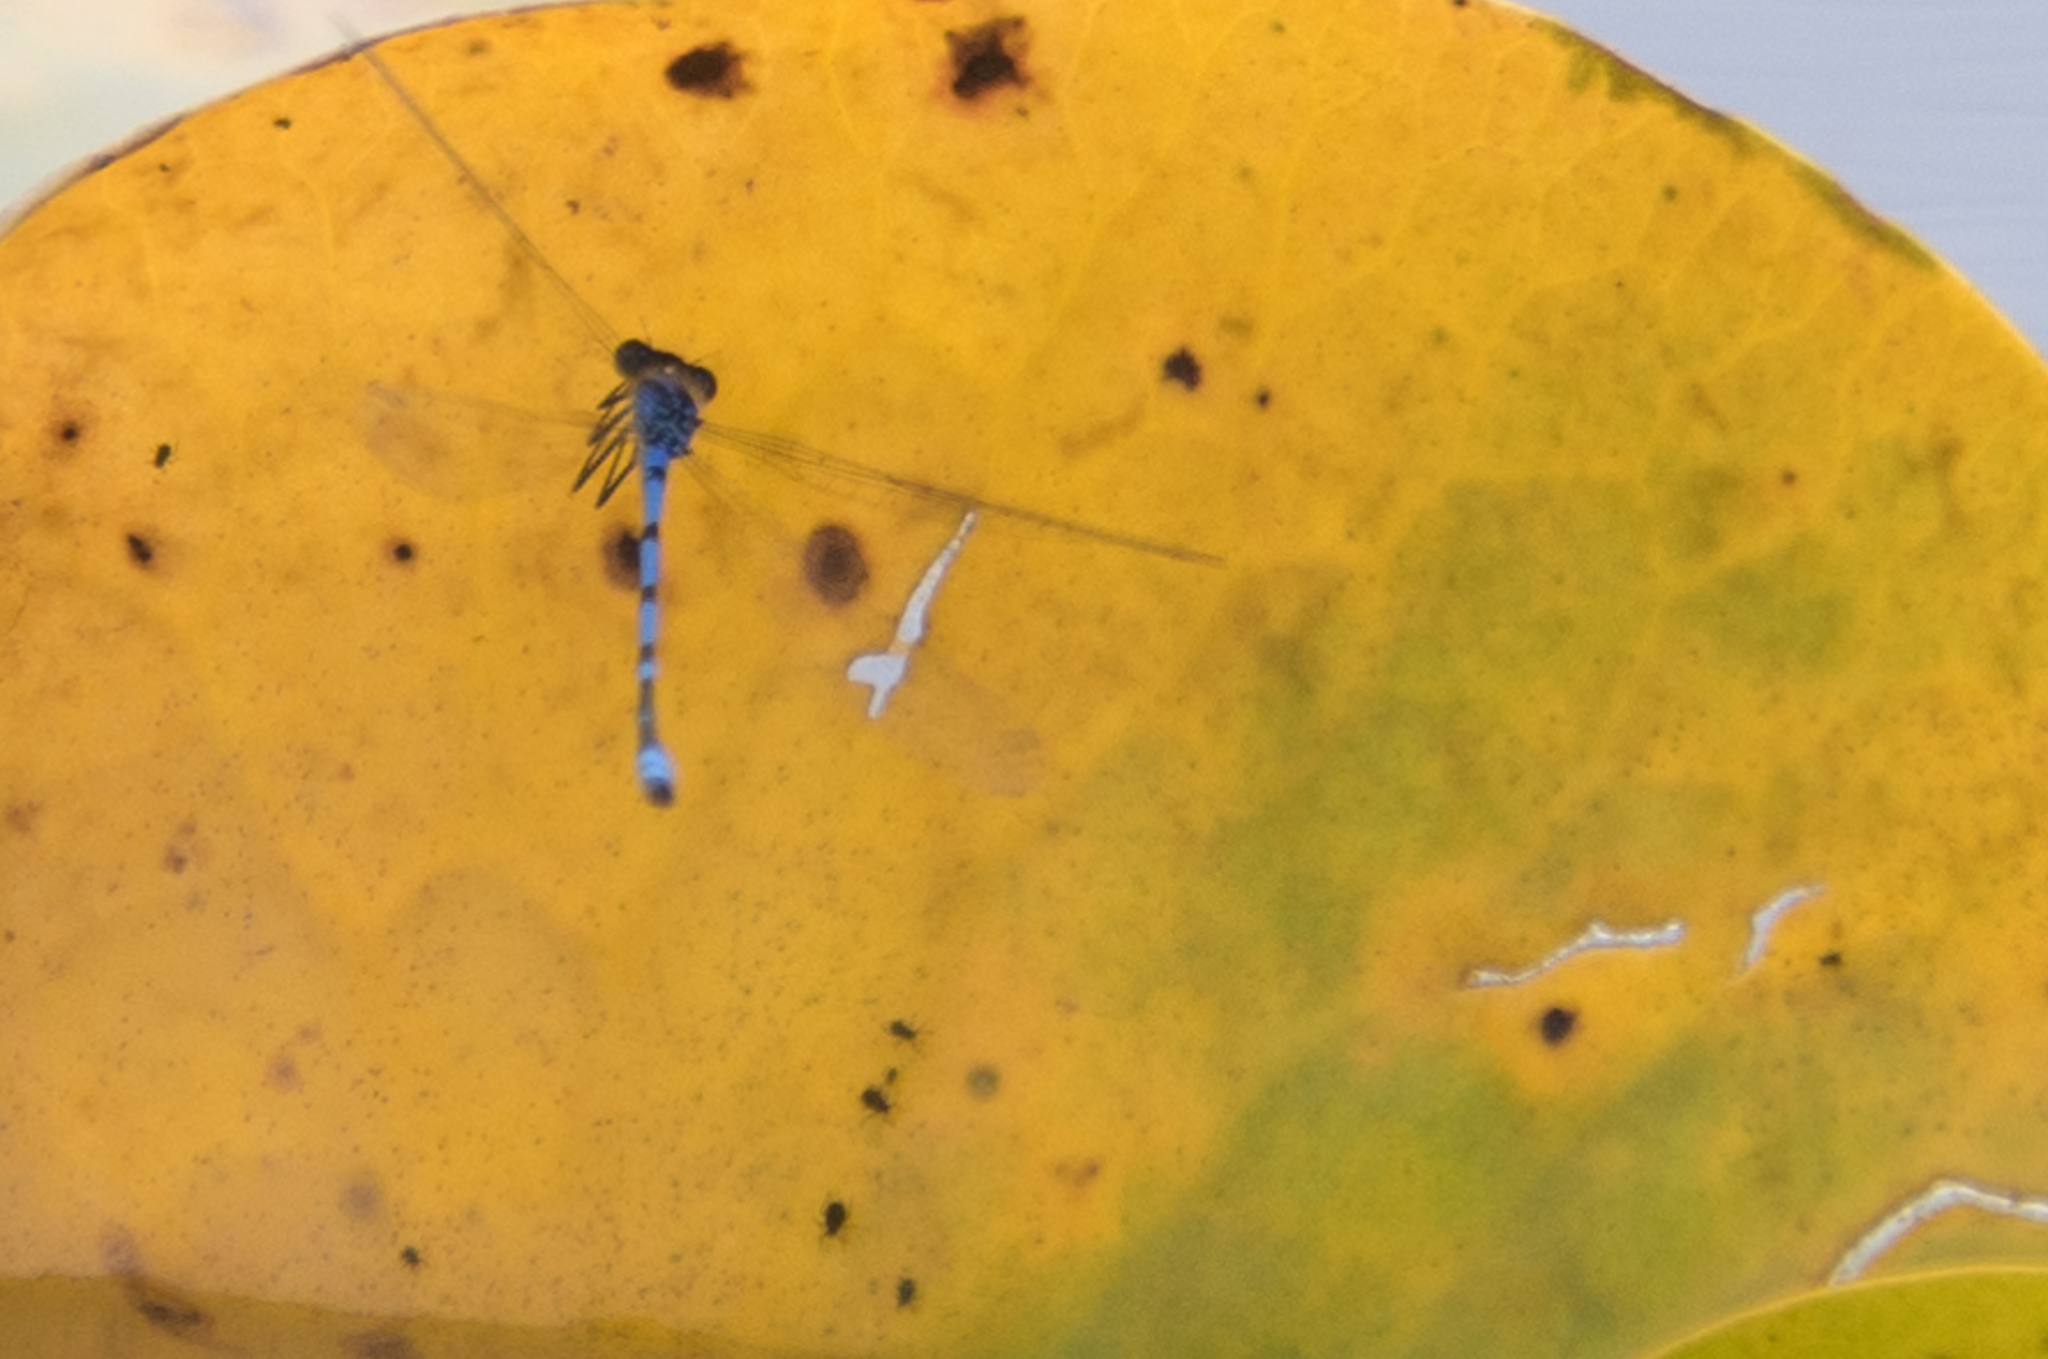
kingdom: Animalia
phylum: Arthropoda
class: Insecta
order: Odonata
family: Coenagrionidae
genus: Enallagma
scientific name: Enallagma civile
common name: Damselfly
